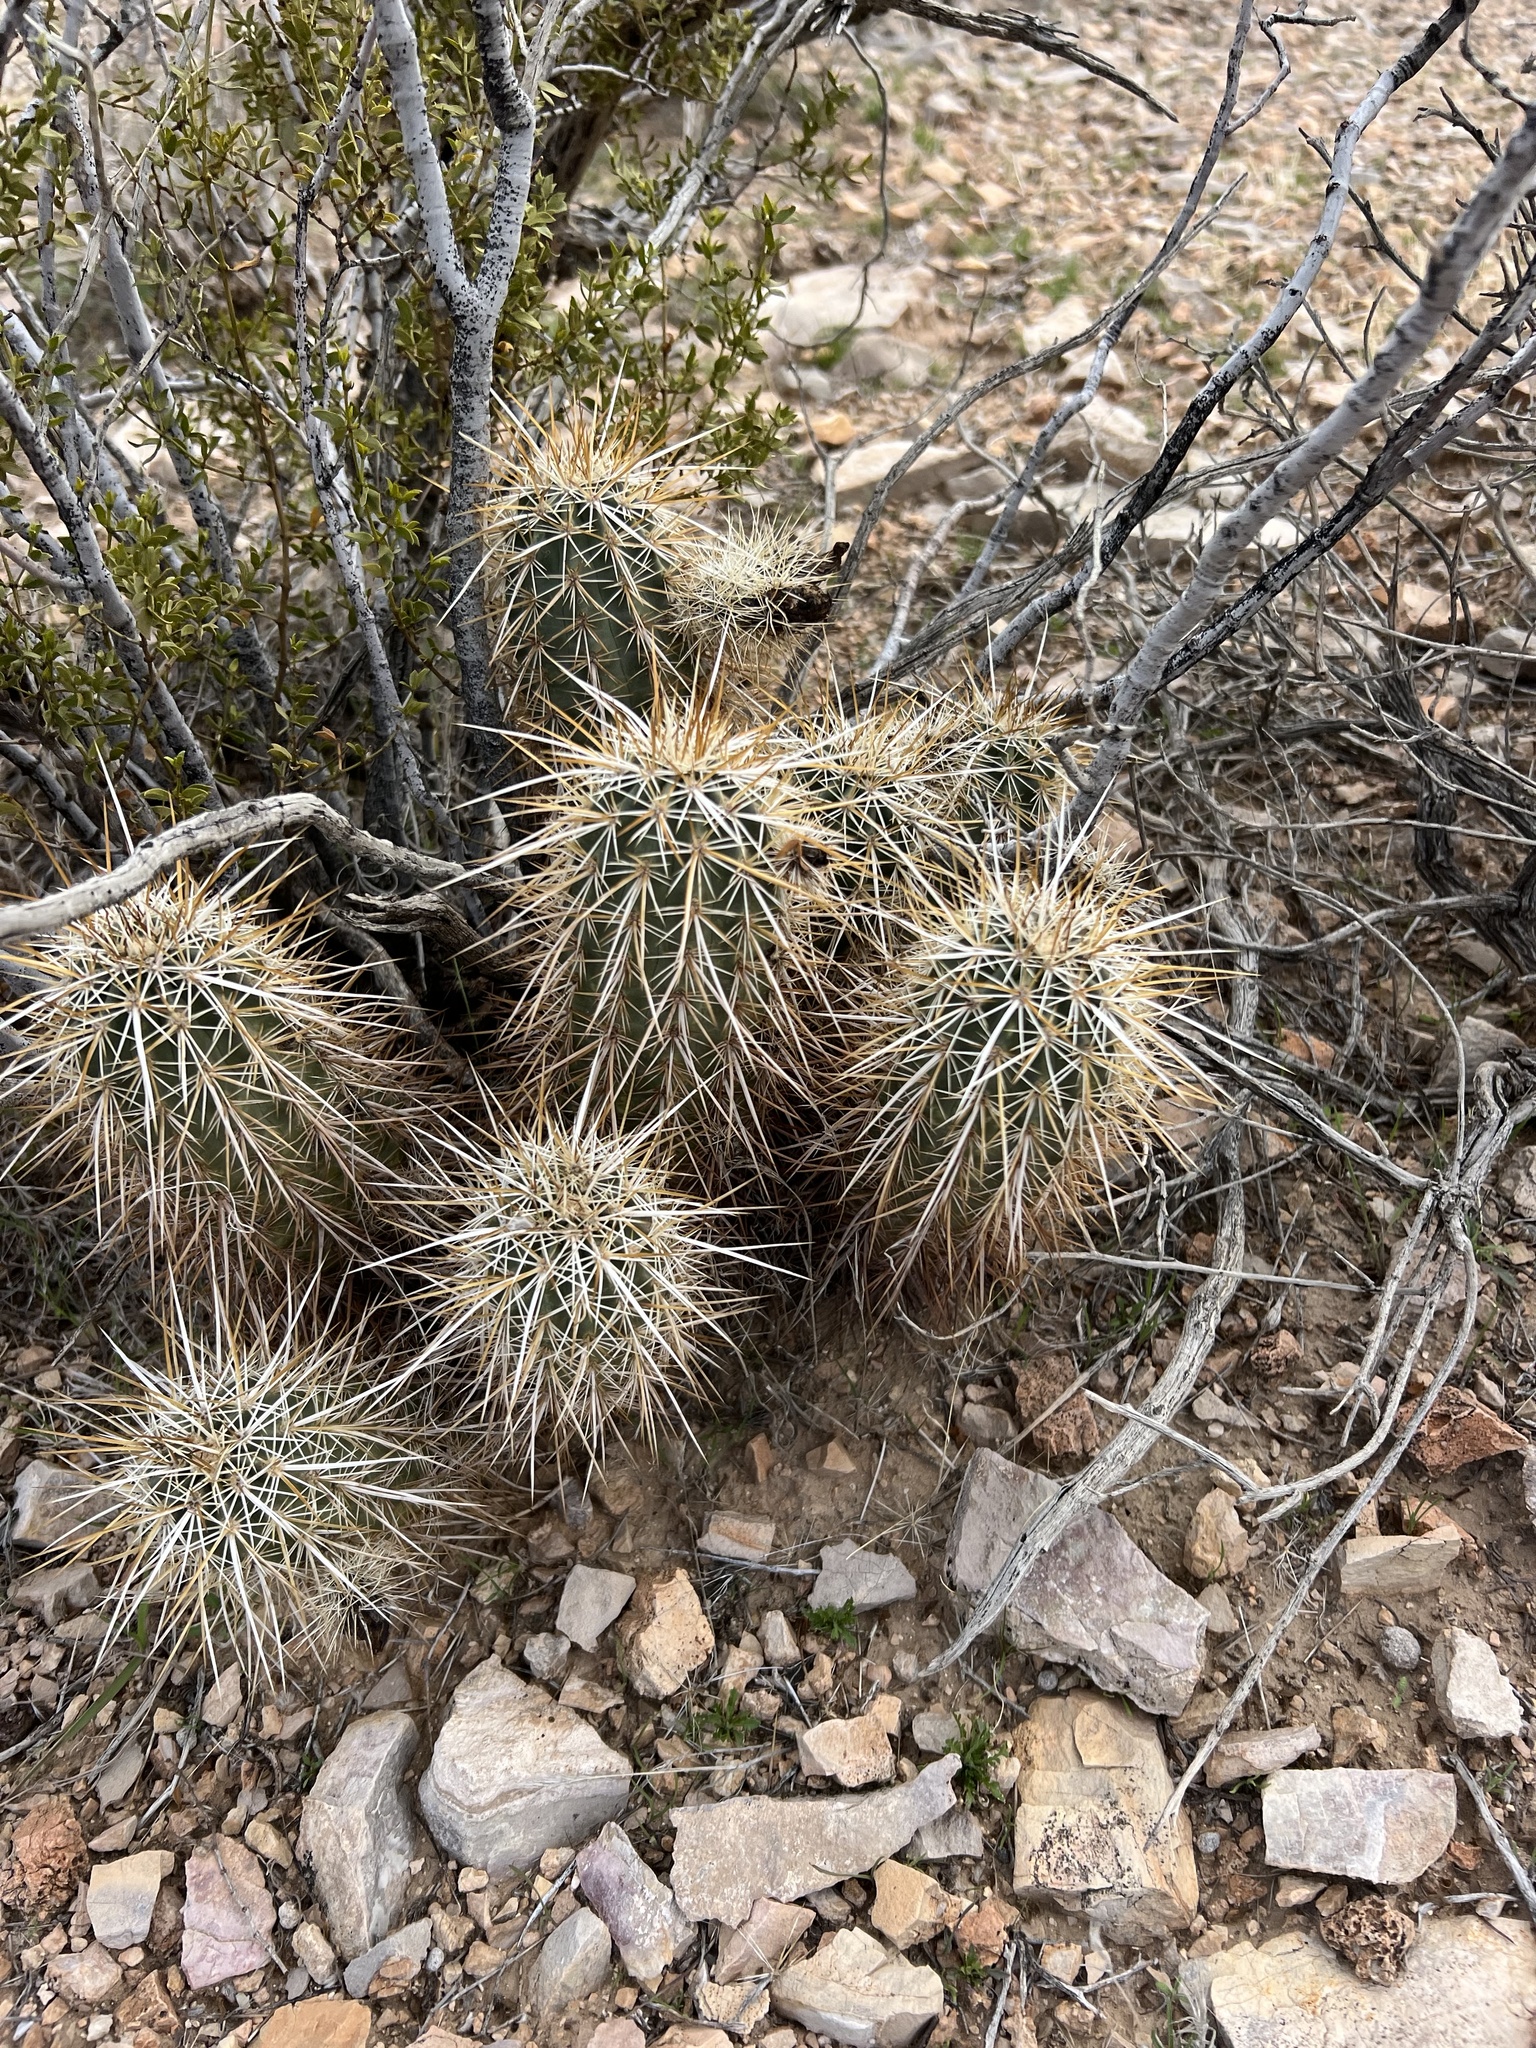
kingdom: Plantae
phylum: Tracheophyta
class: Magnoliopsida
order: Caryophyllales
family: Cactaceae
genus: Echinocereus
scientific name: Echinocereus engelmannii
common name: Engelmann's hedgehog cactus
